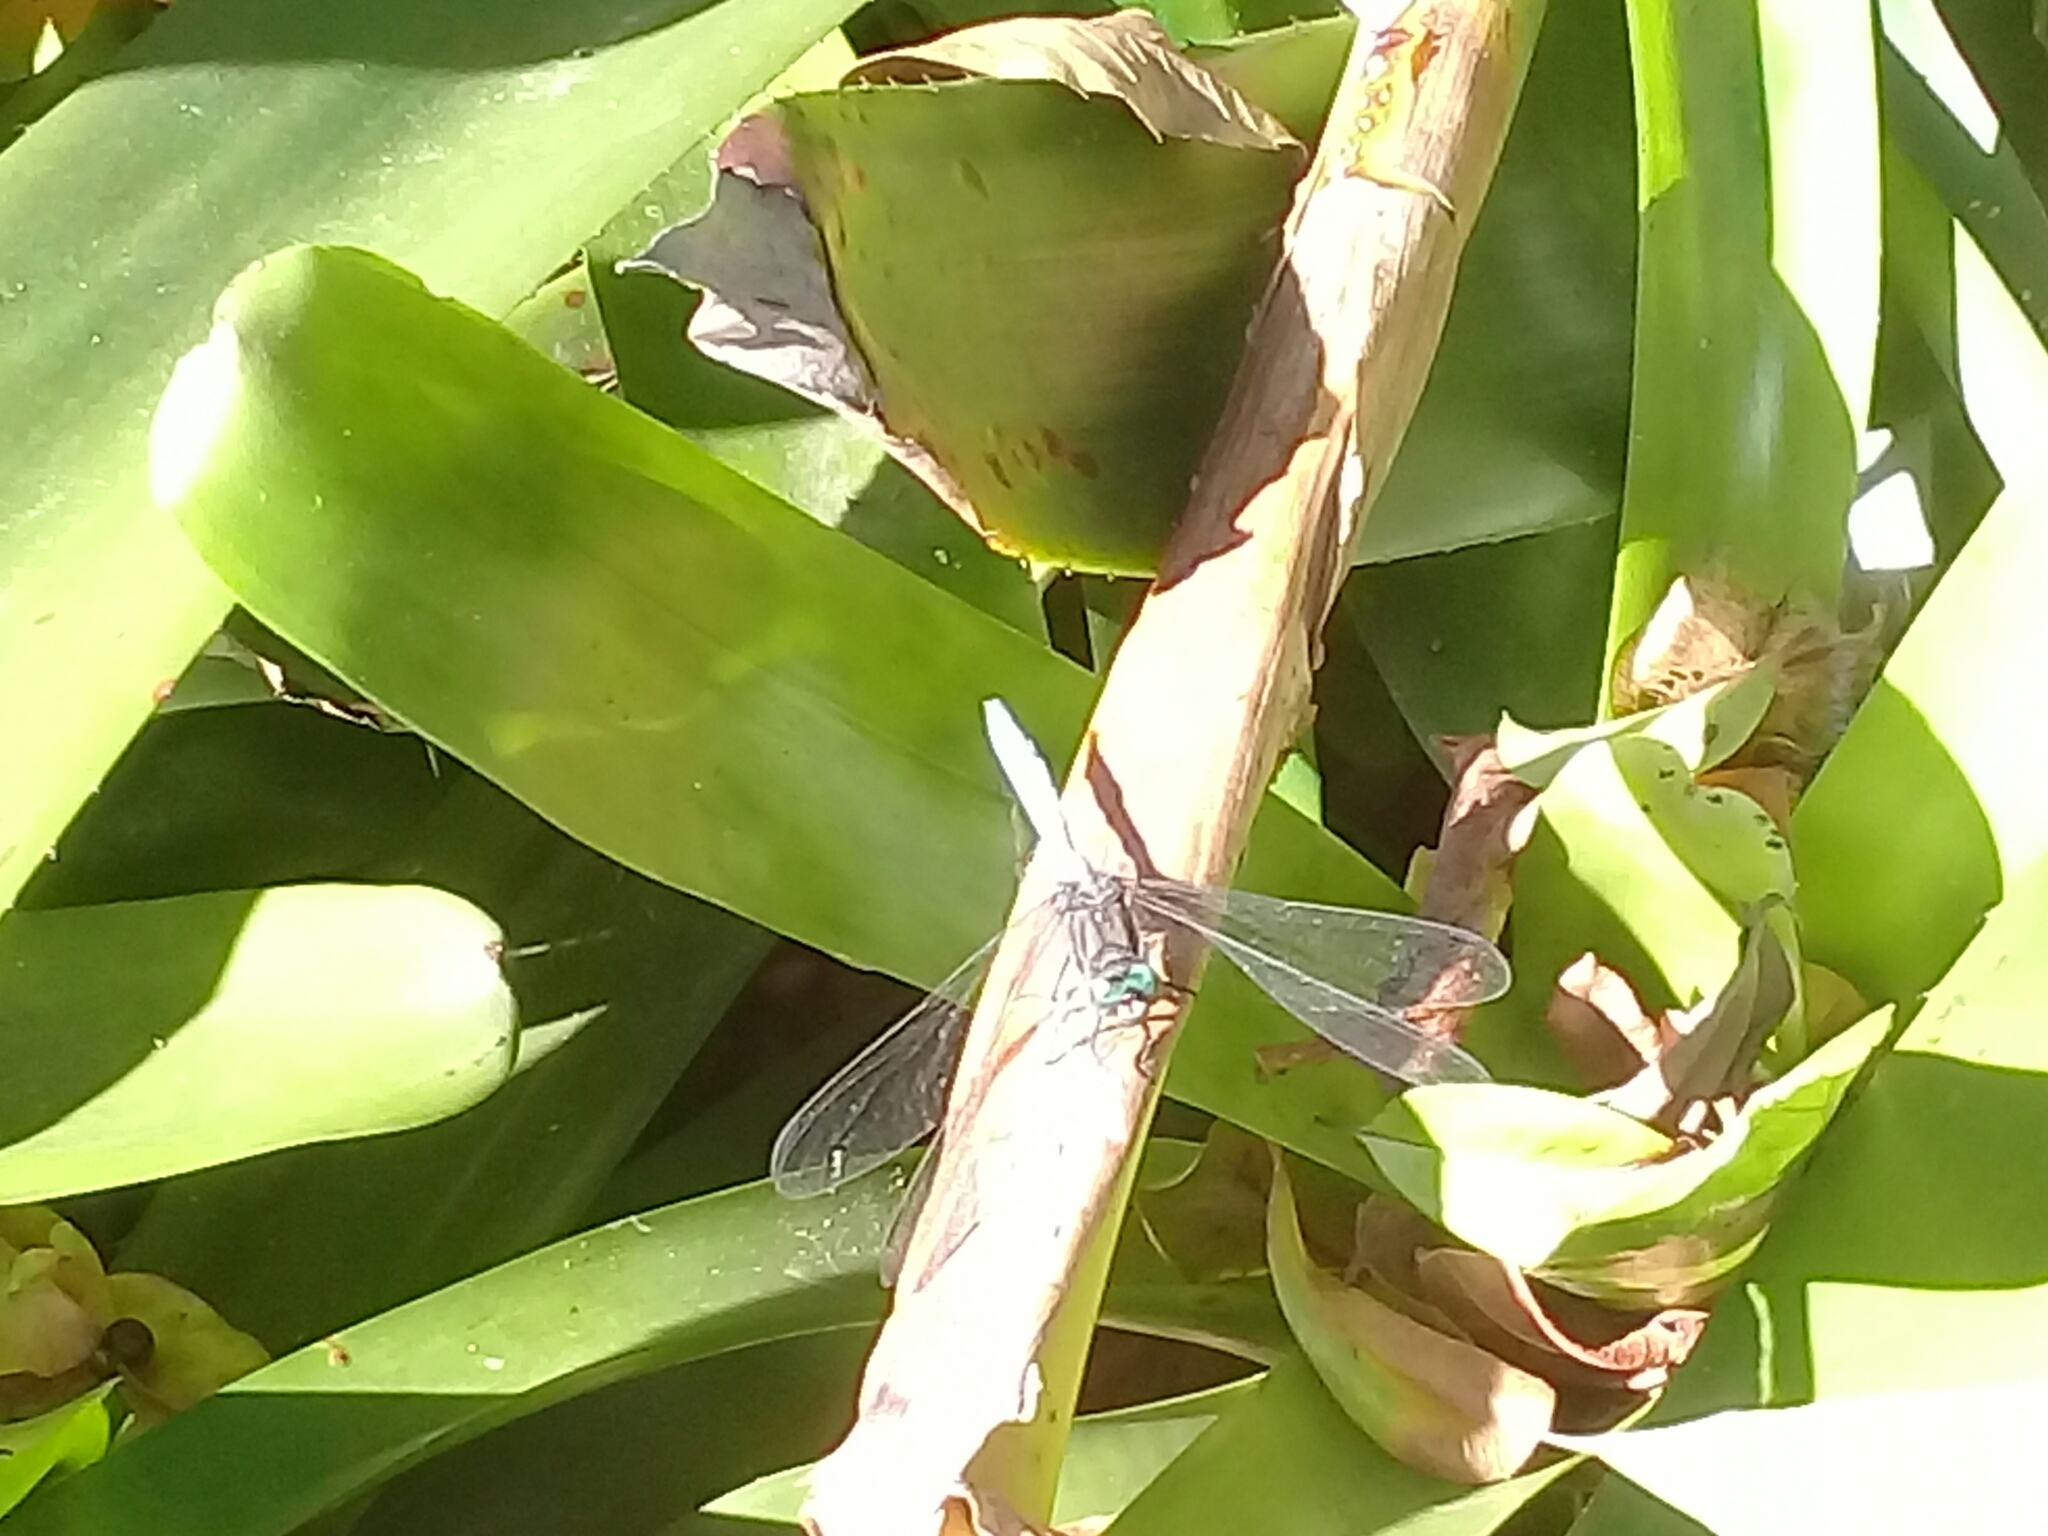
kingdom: Animalia
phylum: Arthropoda
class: Insecta
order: Odonata
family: Libellulidae
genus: Orthetrum
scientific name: Orthetrum julia
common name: Julia skimmer
